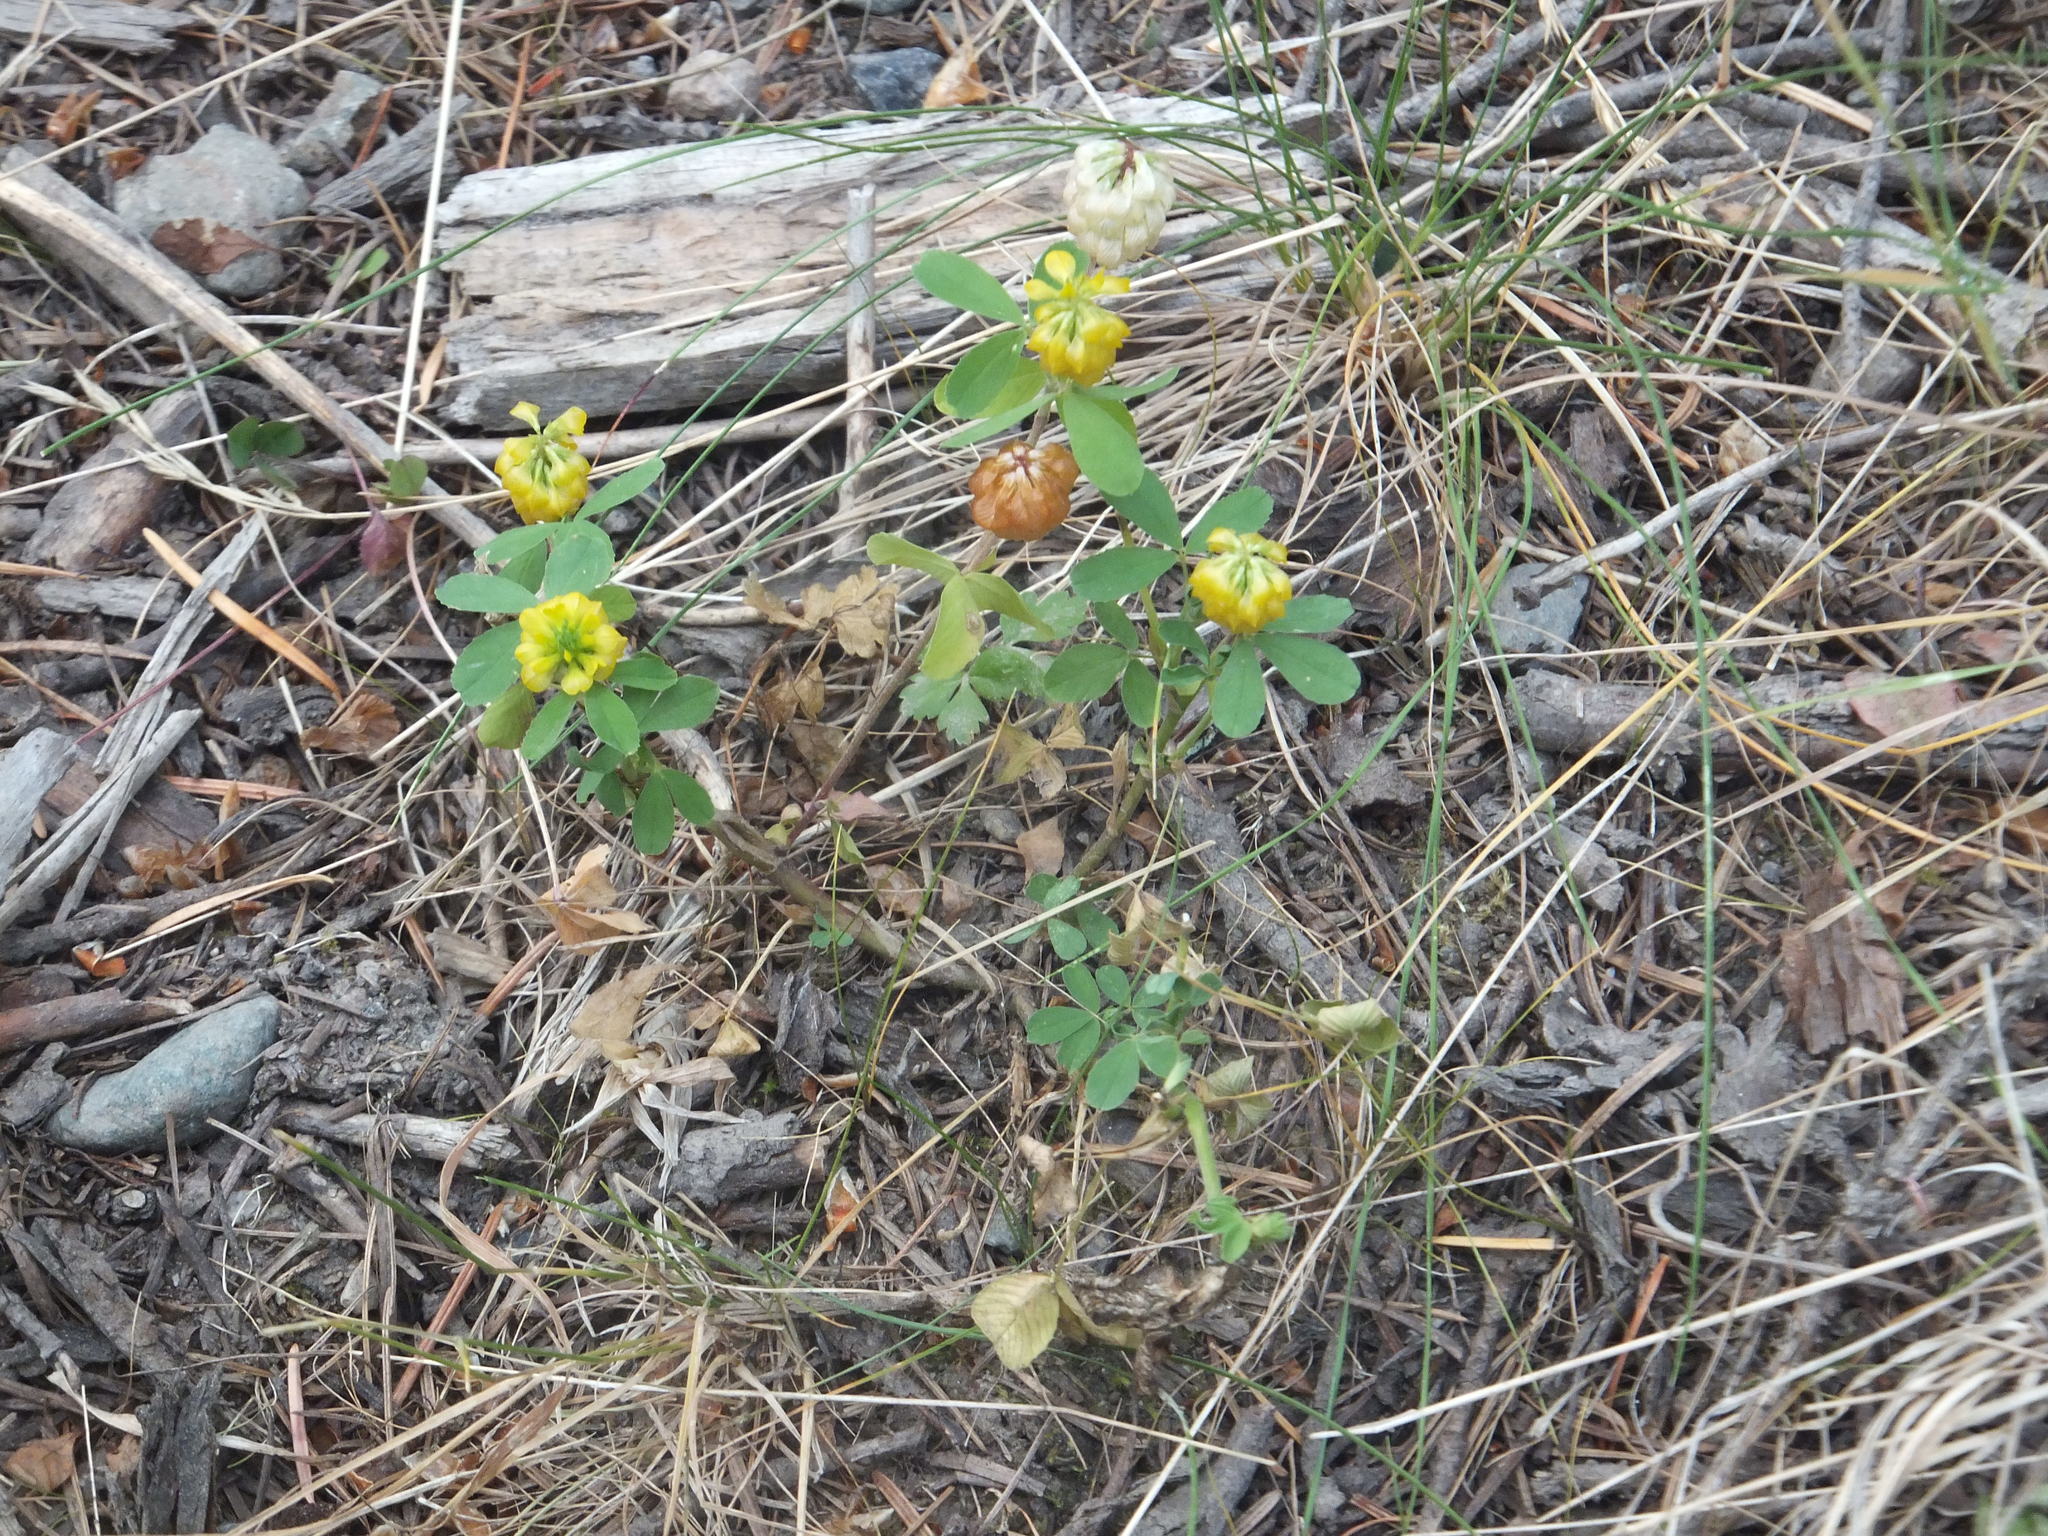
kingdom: Plantae
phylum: Tracheophyta
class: Magnoliopsida
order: Fabales
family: Fabaceae
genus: Trifolium
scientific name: Trifolium aureum
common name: Golden clover
